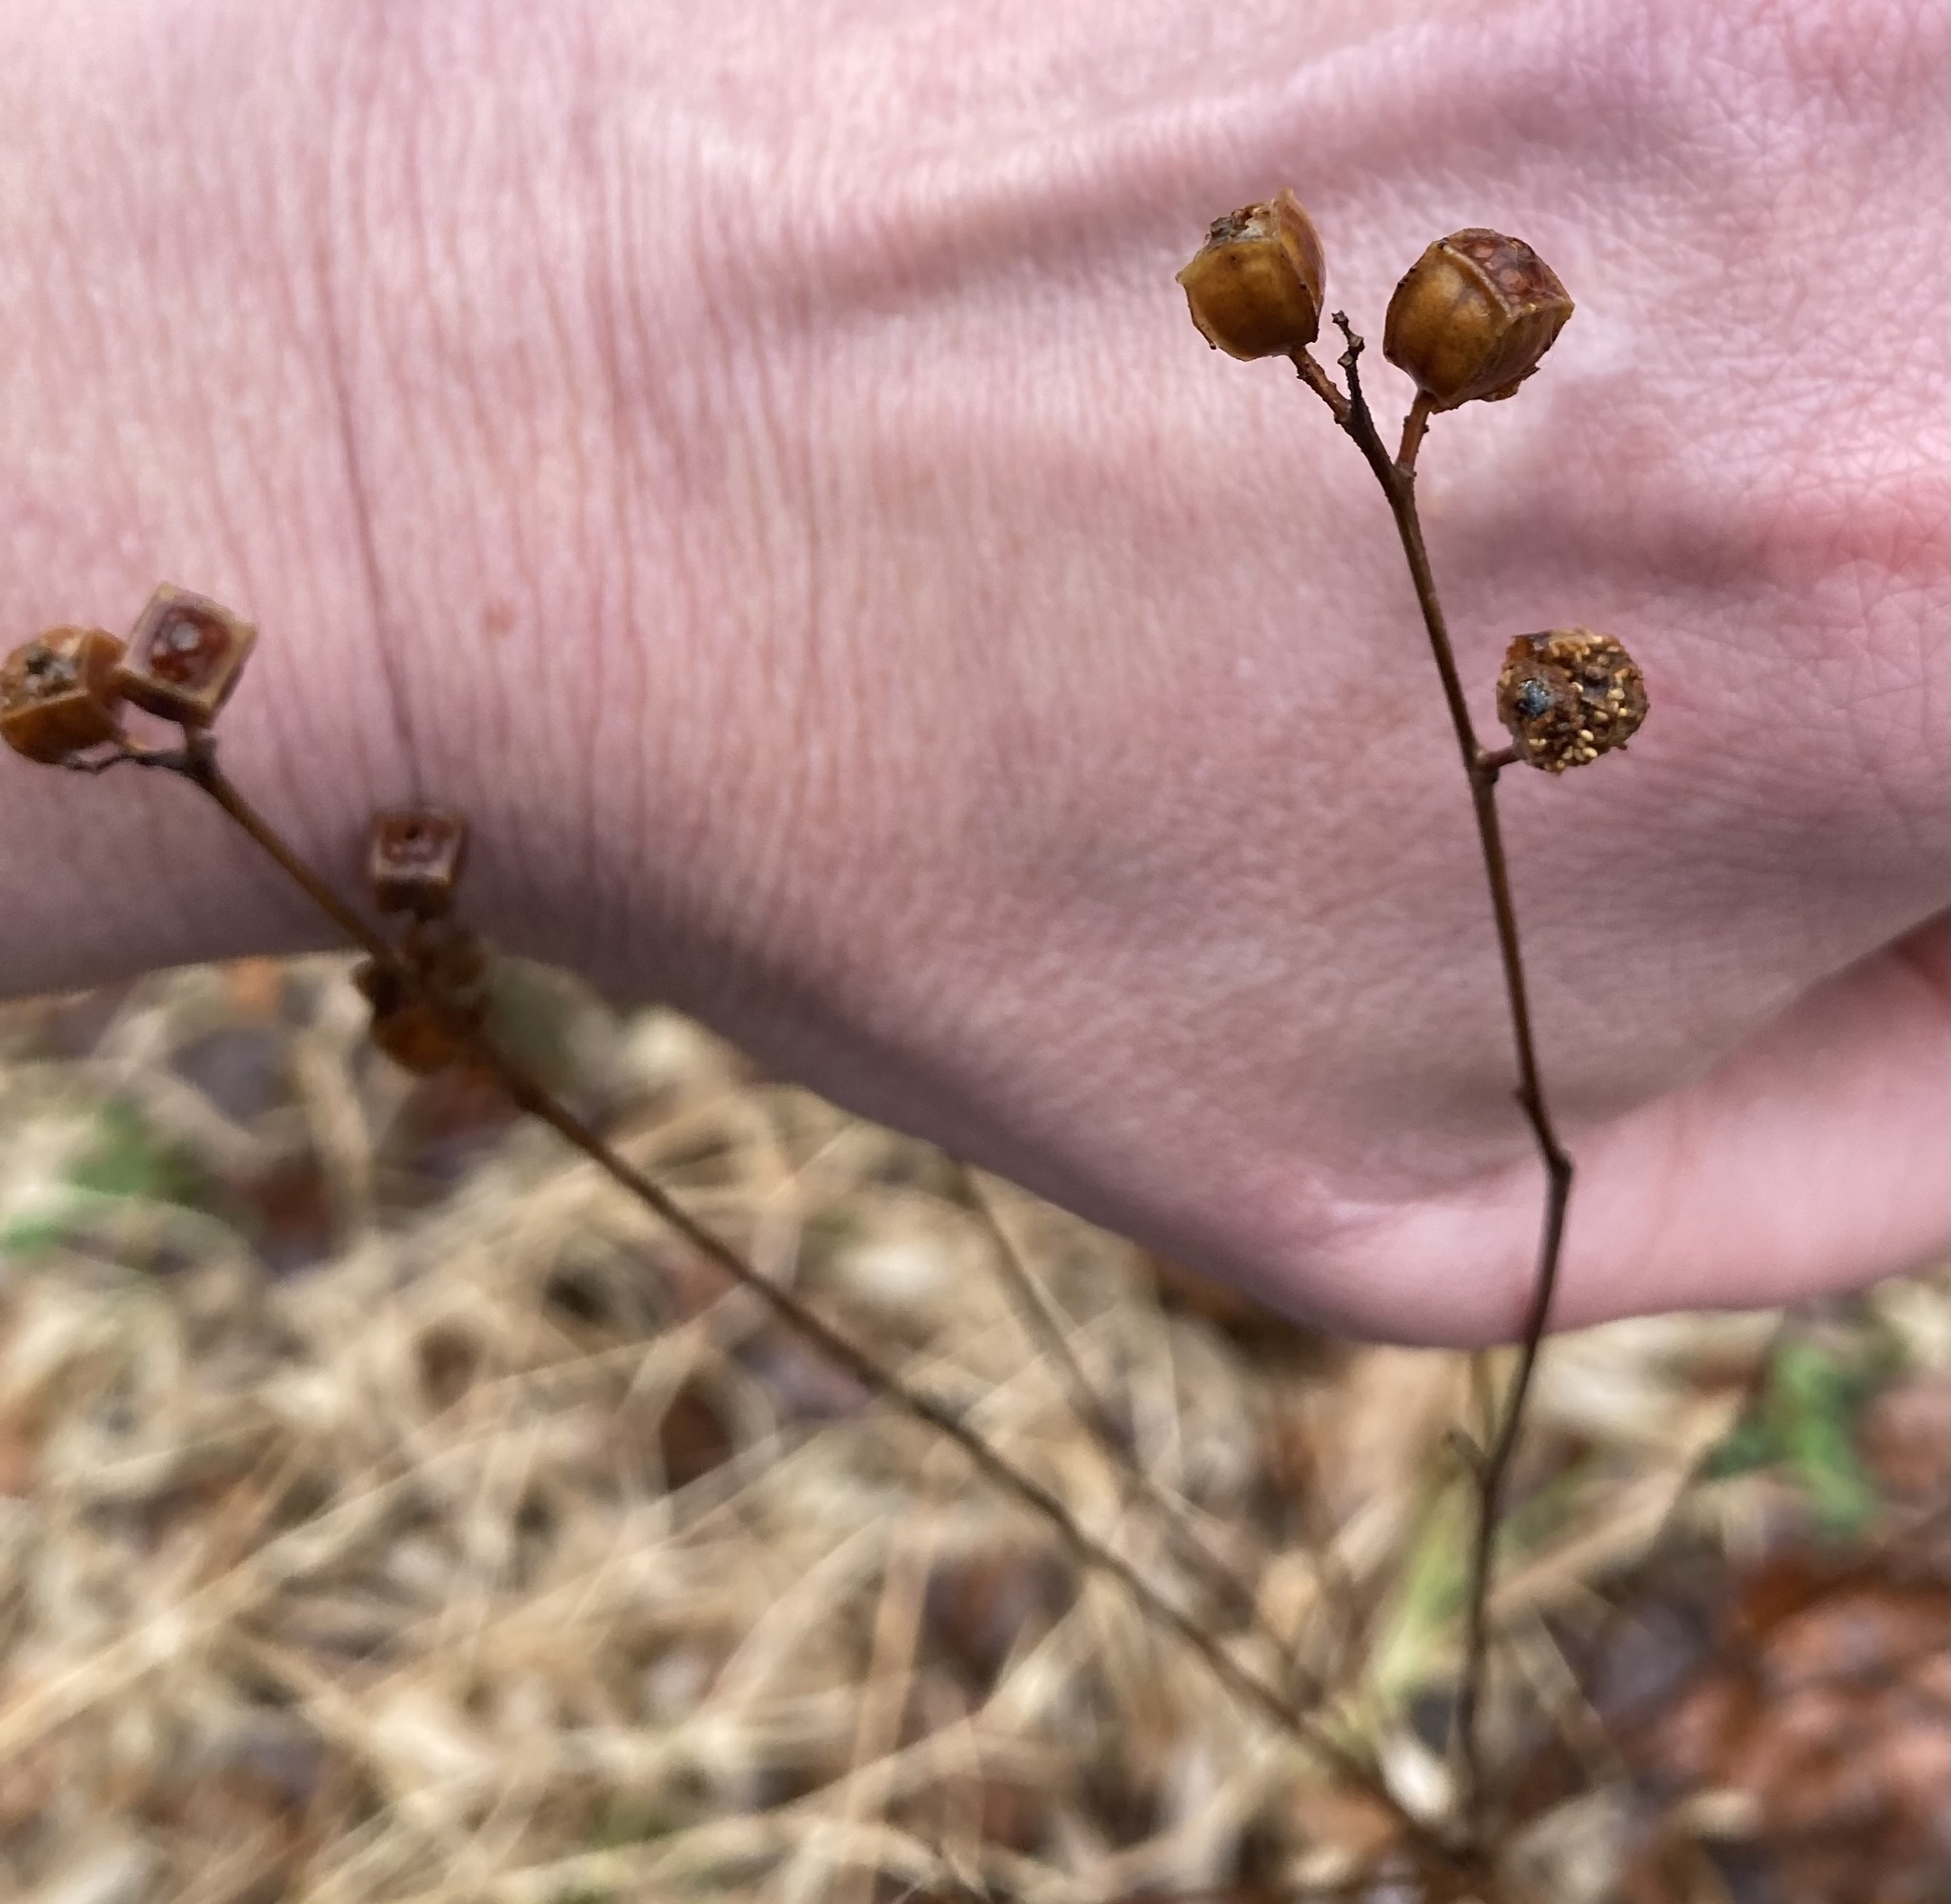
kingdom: Plantae
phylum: Tracheophyta
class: Magnoliopsida
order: Myrtales
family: Onagraceae
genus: Ludwigia
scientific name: Ludwigia alternifolia
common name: Rattlebox
